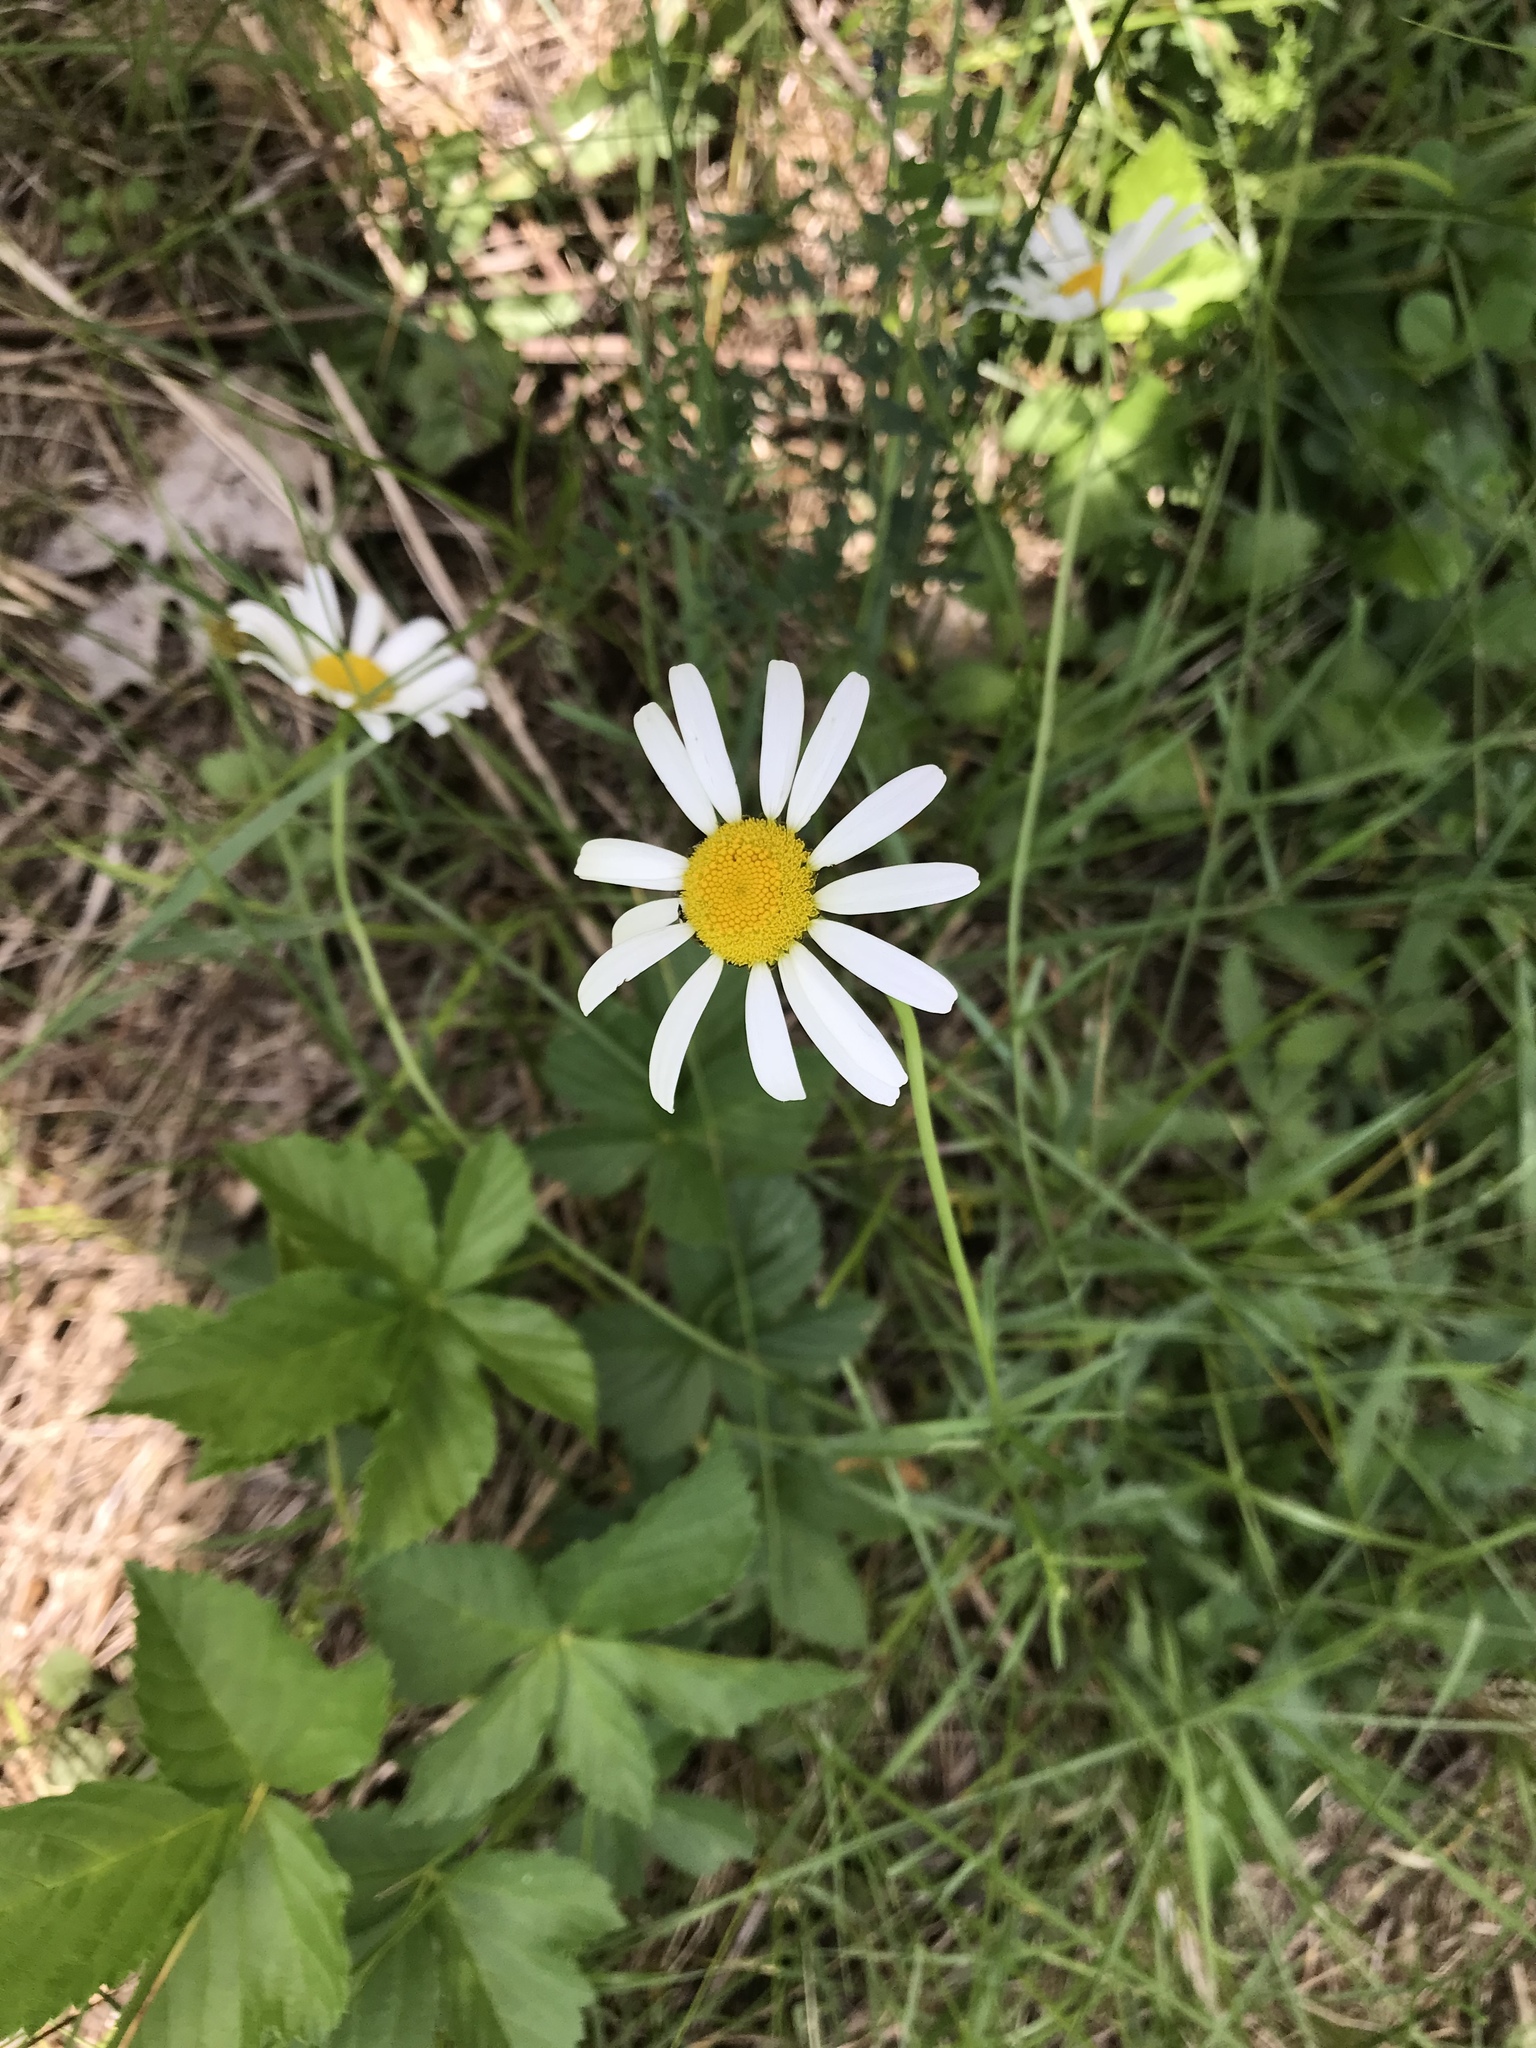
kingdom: Plantae
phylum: Tracheophyta
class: Magnoliopsida
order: Asterales
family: Asteraceae
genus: Leucanthemum
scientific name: Leucanthemum vulgare
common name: Oxeye daisy
